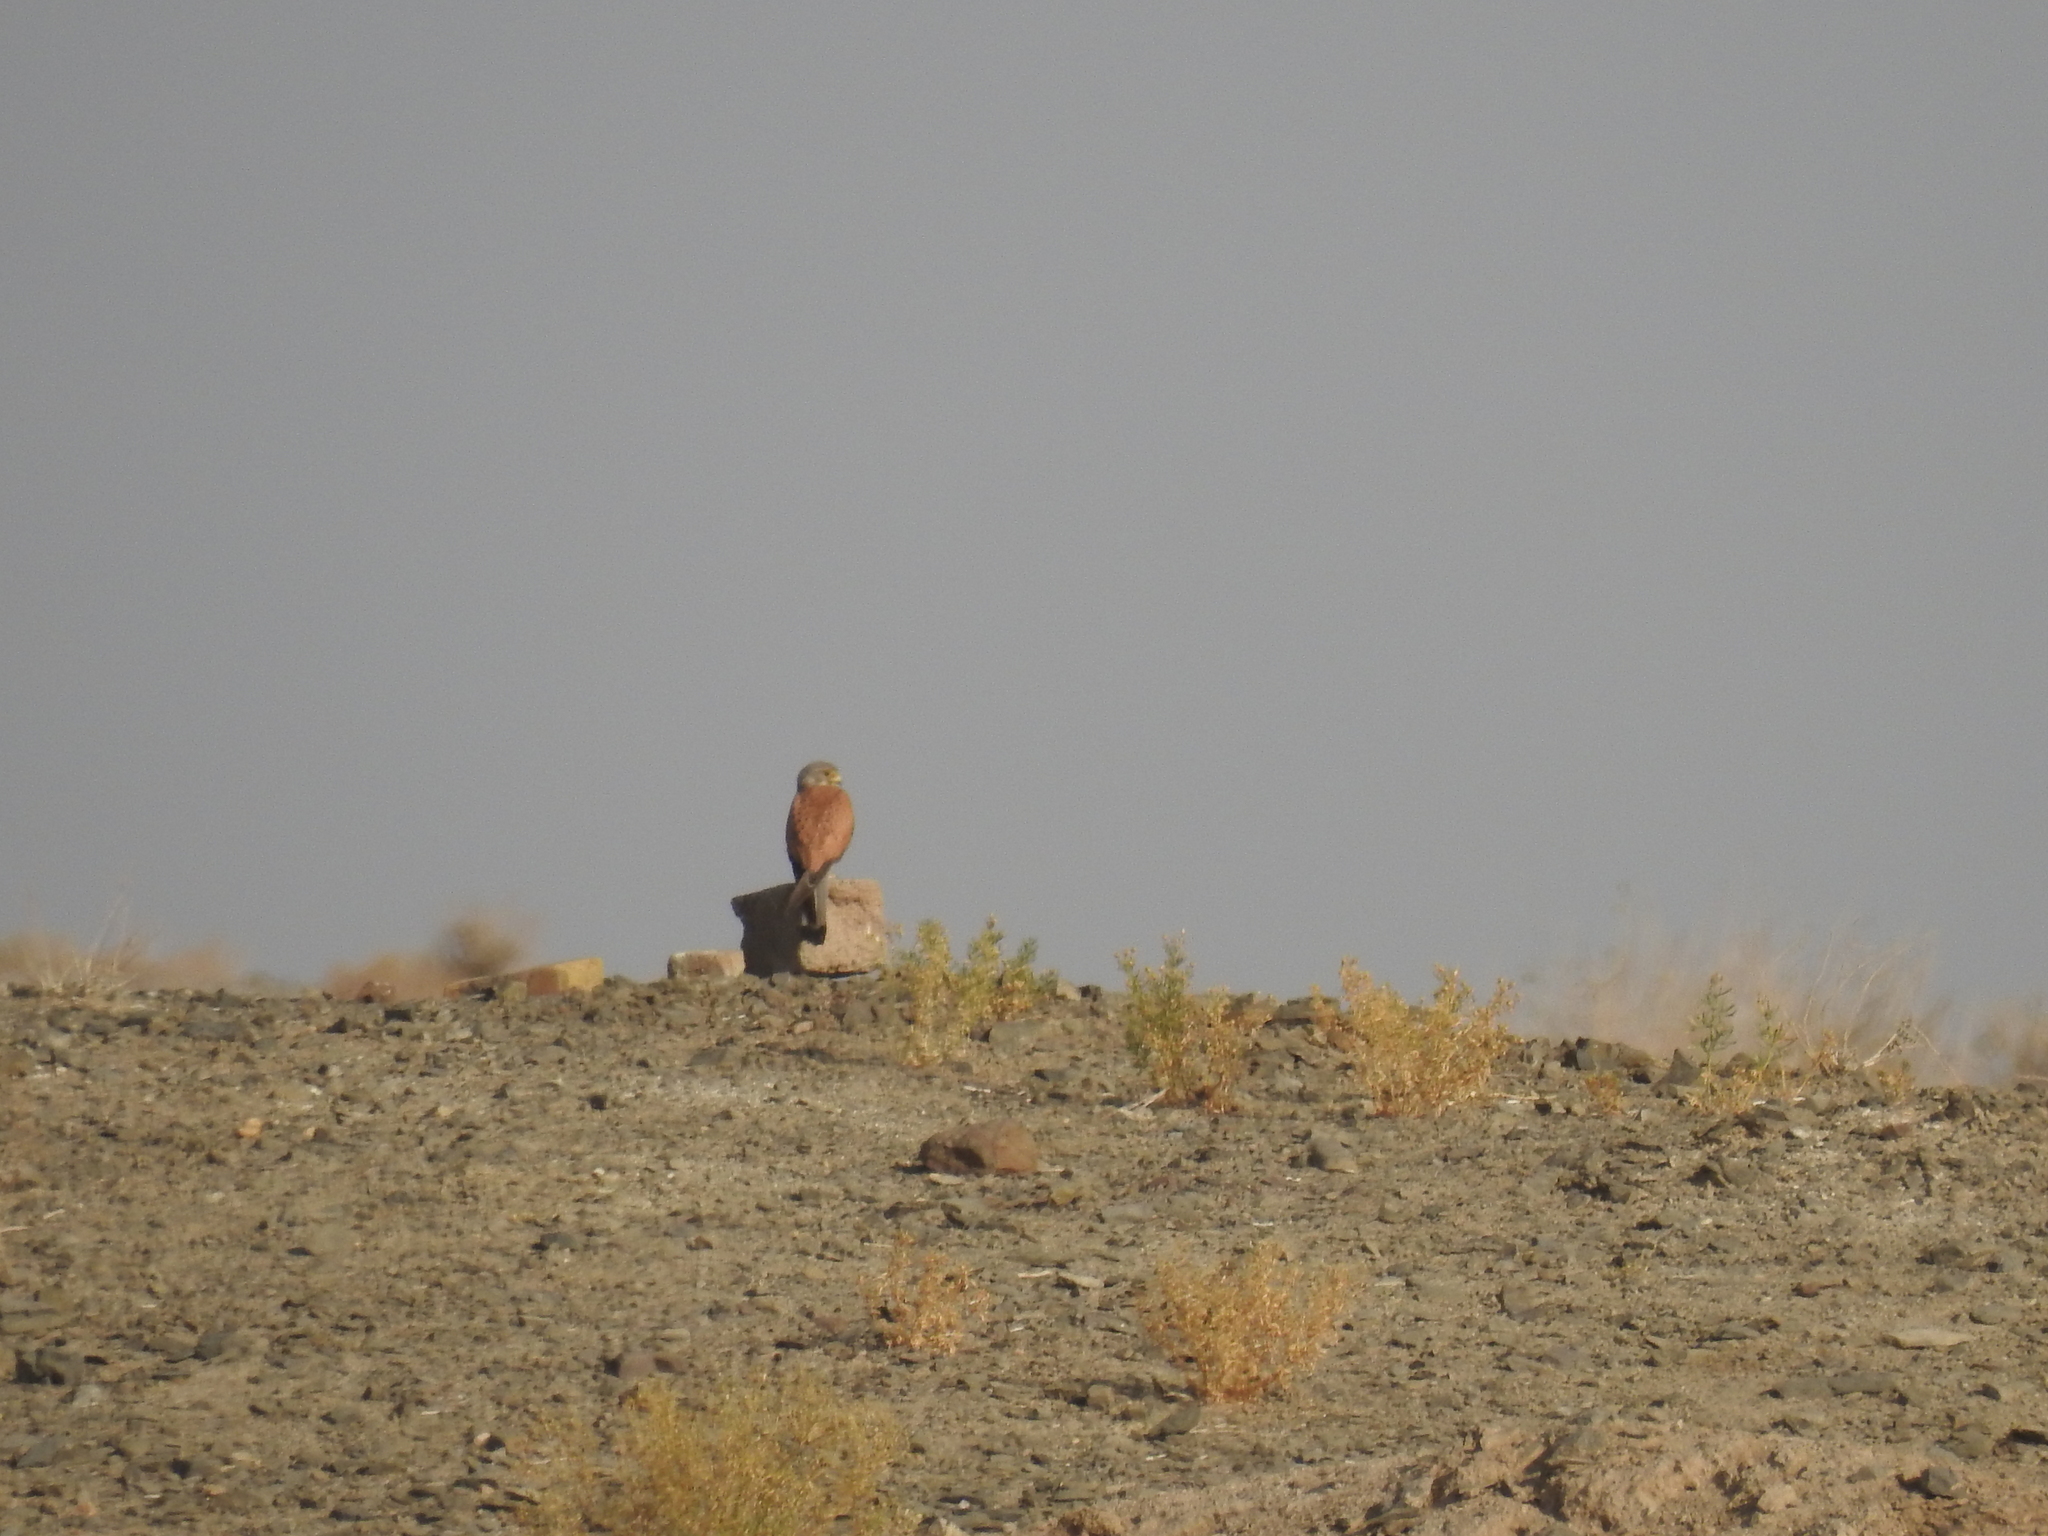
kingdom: Animalia
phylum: Chordata
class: Aves
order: Falconiformes
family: Falconidae
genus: Falco
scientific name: Falco naumanni
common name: Lesser kestrel
